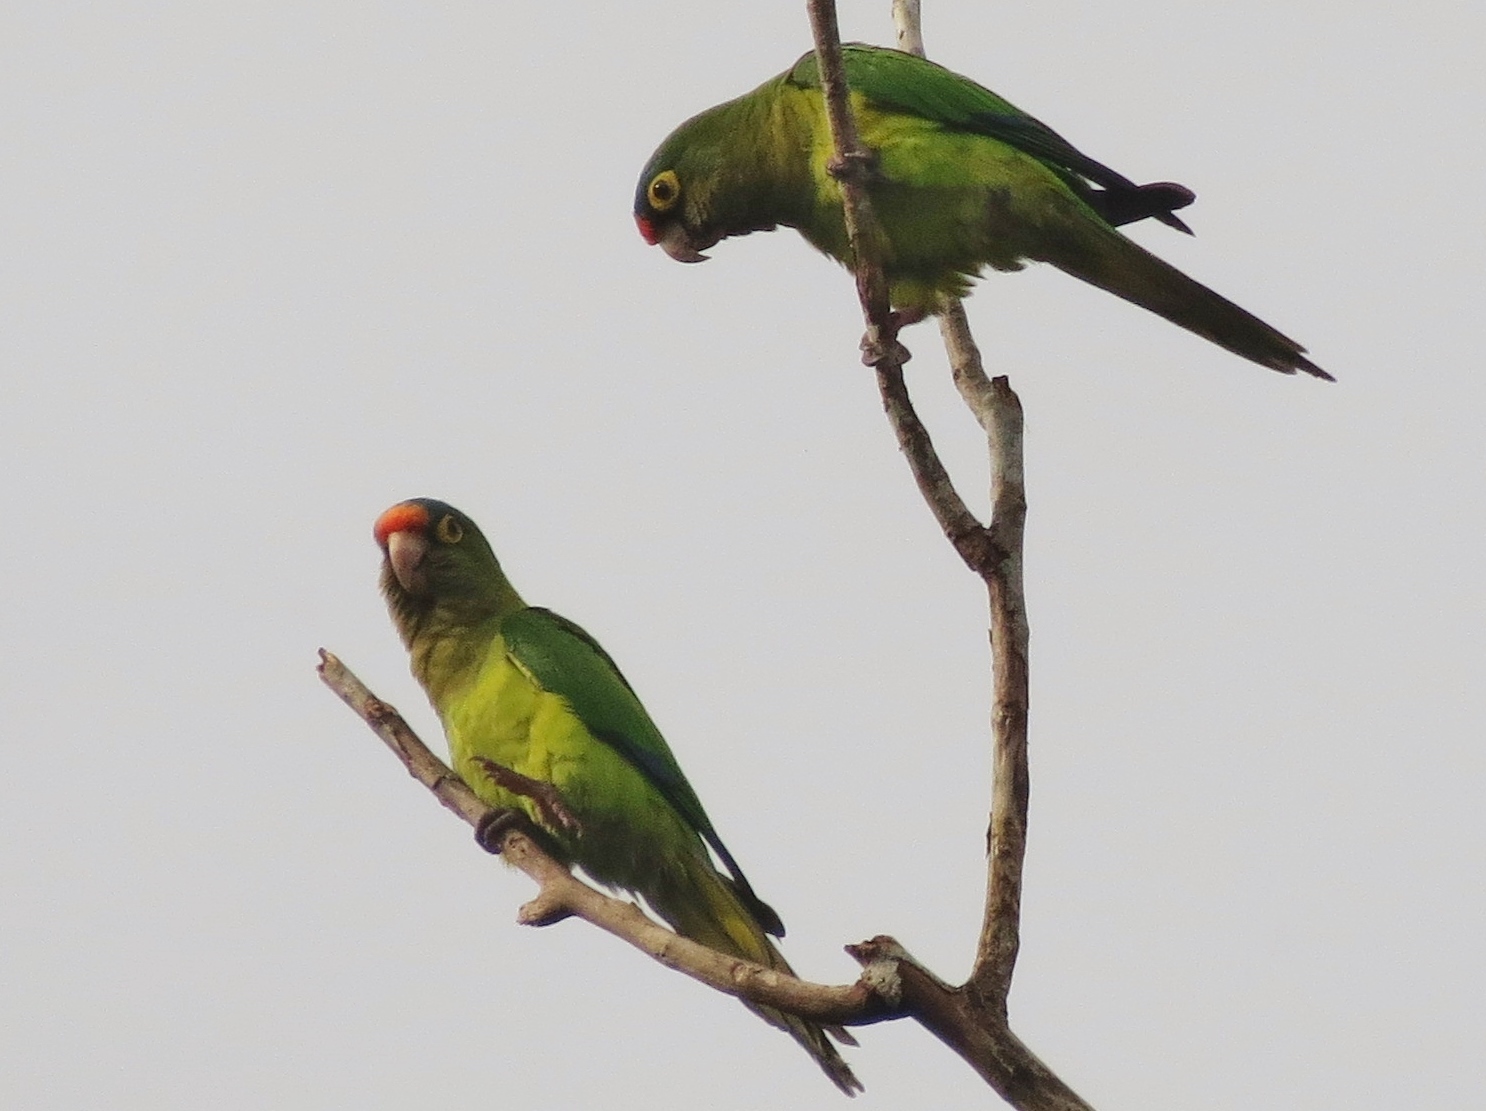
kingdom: Animalia
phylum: Chordata
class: Aves
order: Psittaciformes
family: Psittacidae
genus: Aratinga
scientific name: Aratinga canicularis
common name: Orange-fronted parakeet
